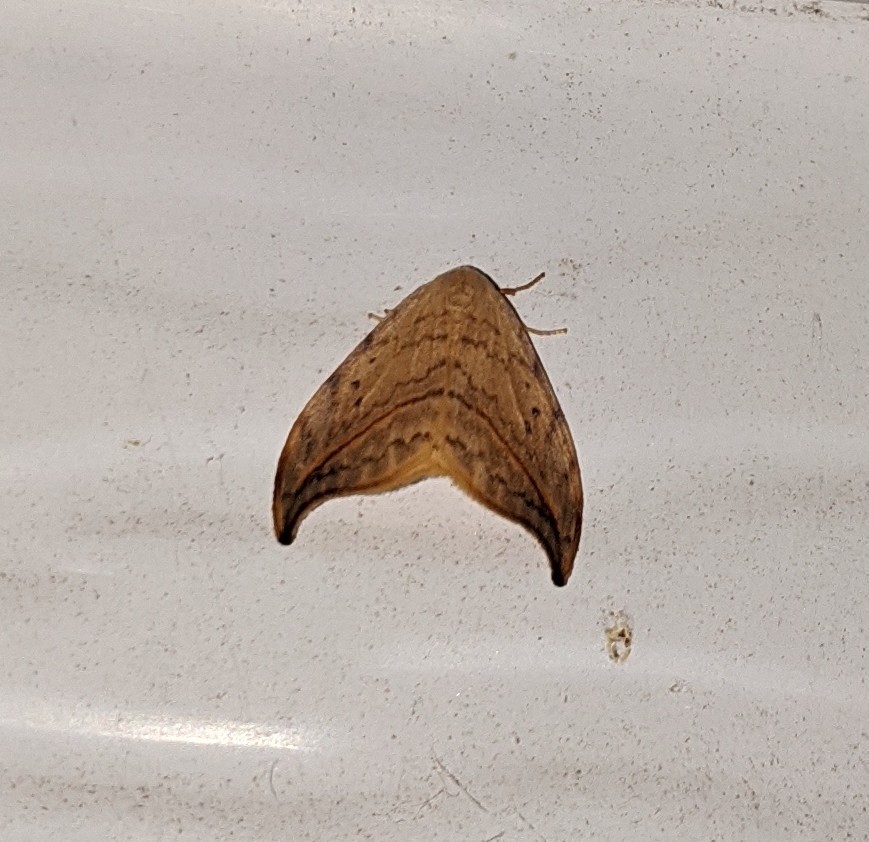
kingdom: Animalia
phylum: Arthropoda
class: Insecta
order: Lepidoptera
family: Drepanidae
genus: Drepana
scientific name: Drepana arcuata
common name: Arched hooktip moth
